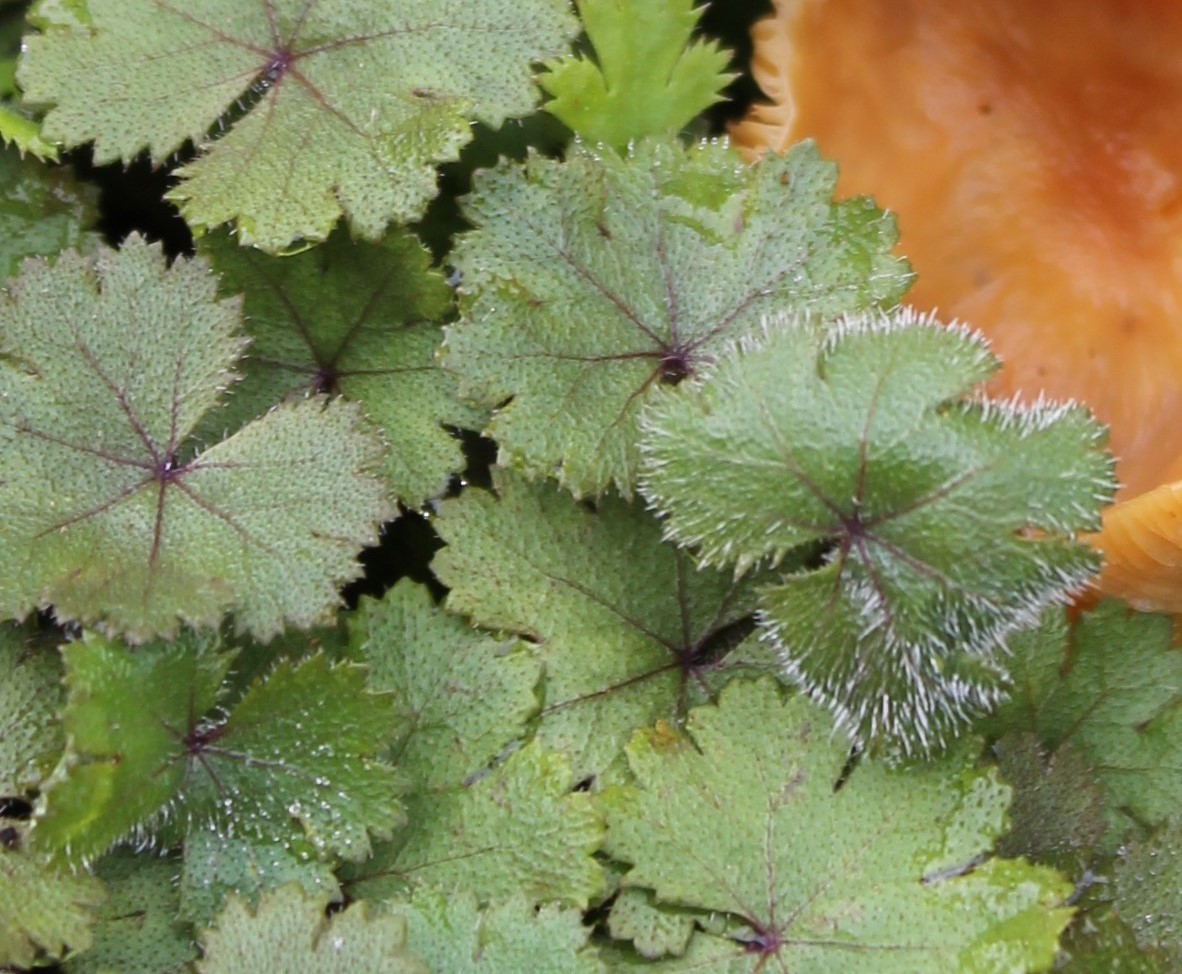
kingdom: Plantae
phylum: Tracheophyta
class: Magnoliopsida
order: Apiales
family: Araliaceae
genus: Hydrocotyle
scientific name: Hydrocotyle moschata
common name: Hairy pennywort
